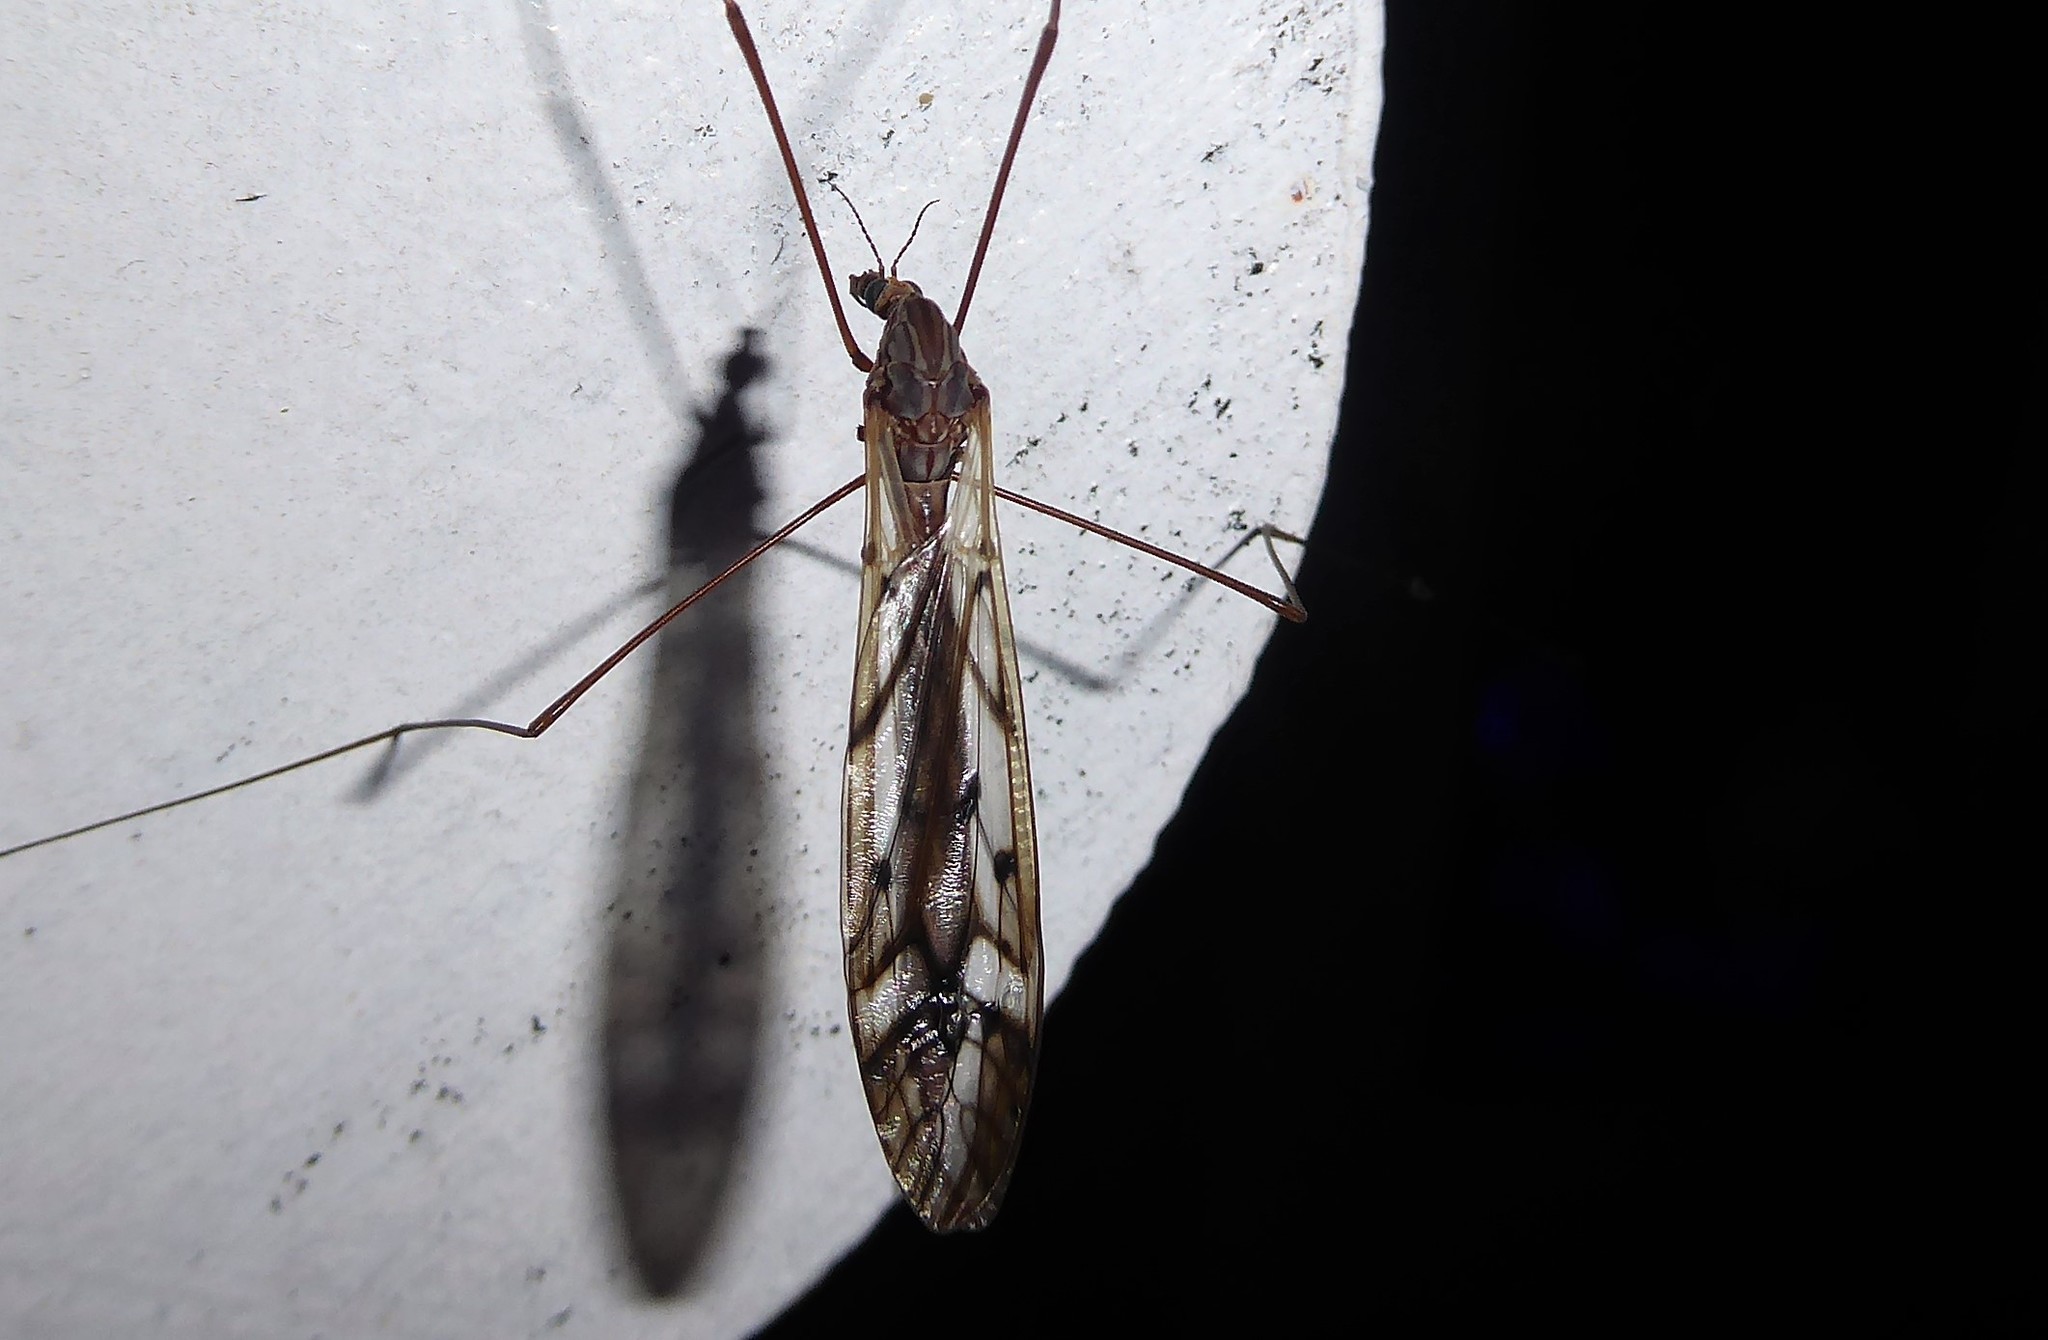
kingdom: Animalia
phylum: Arthropoda
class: Insecta
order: Diptera
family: Tipulidae
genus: Zelandotipula
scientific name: Zelandotipula novarae
